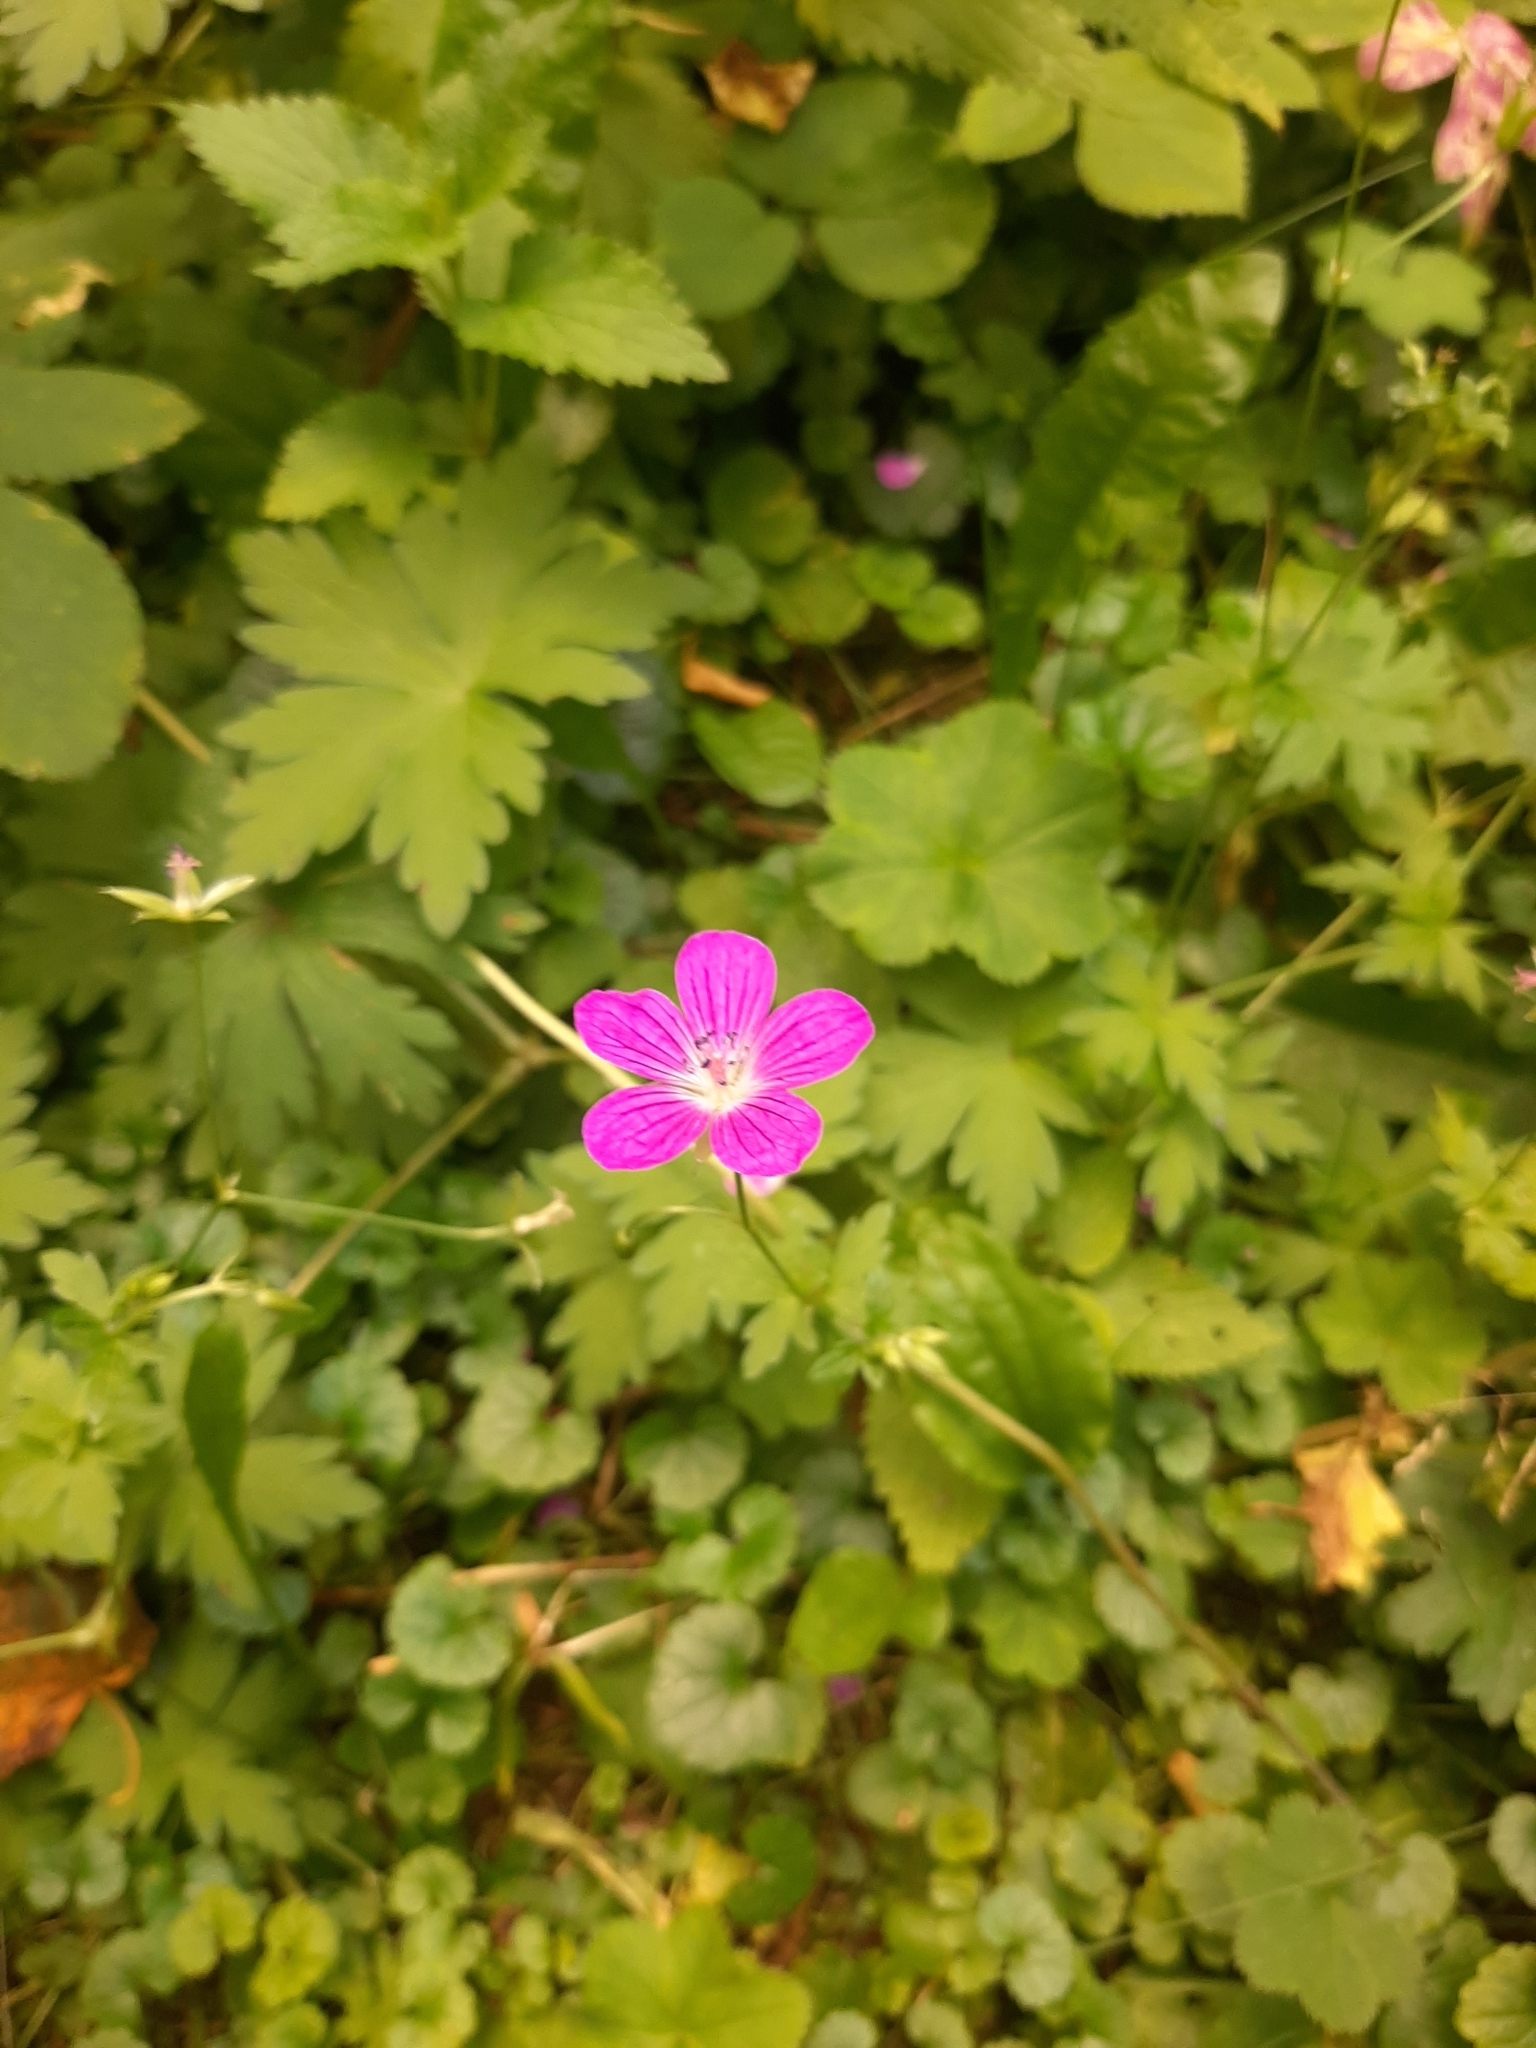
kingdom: Plantae
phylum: Tracheophyta
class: Magnoliopsida
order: Geraniales
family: Geraniaceae
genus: Geranium
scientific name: Geranium palustre
